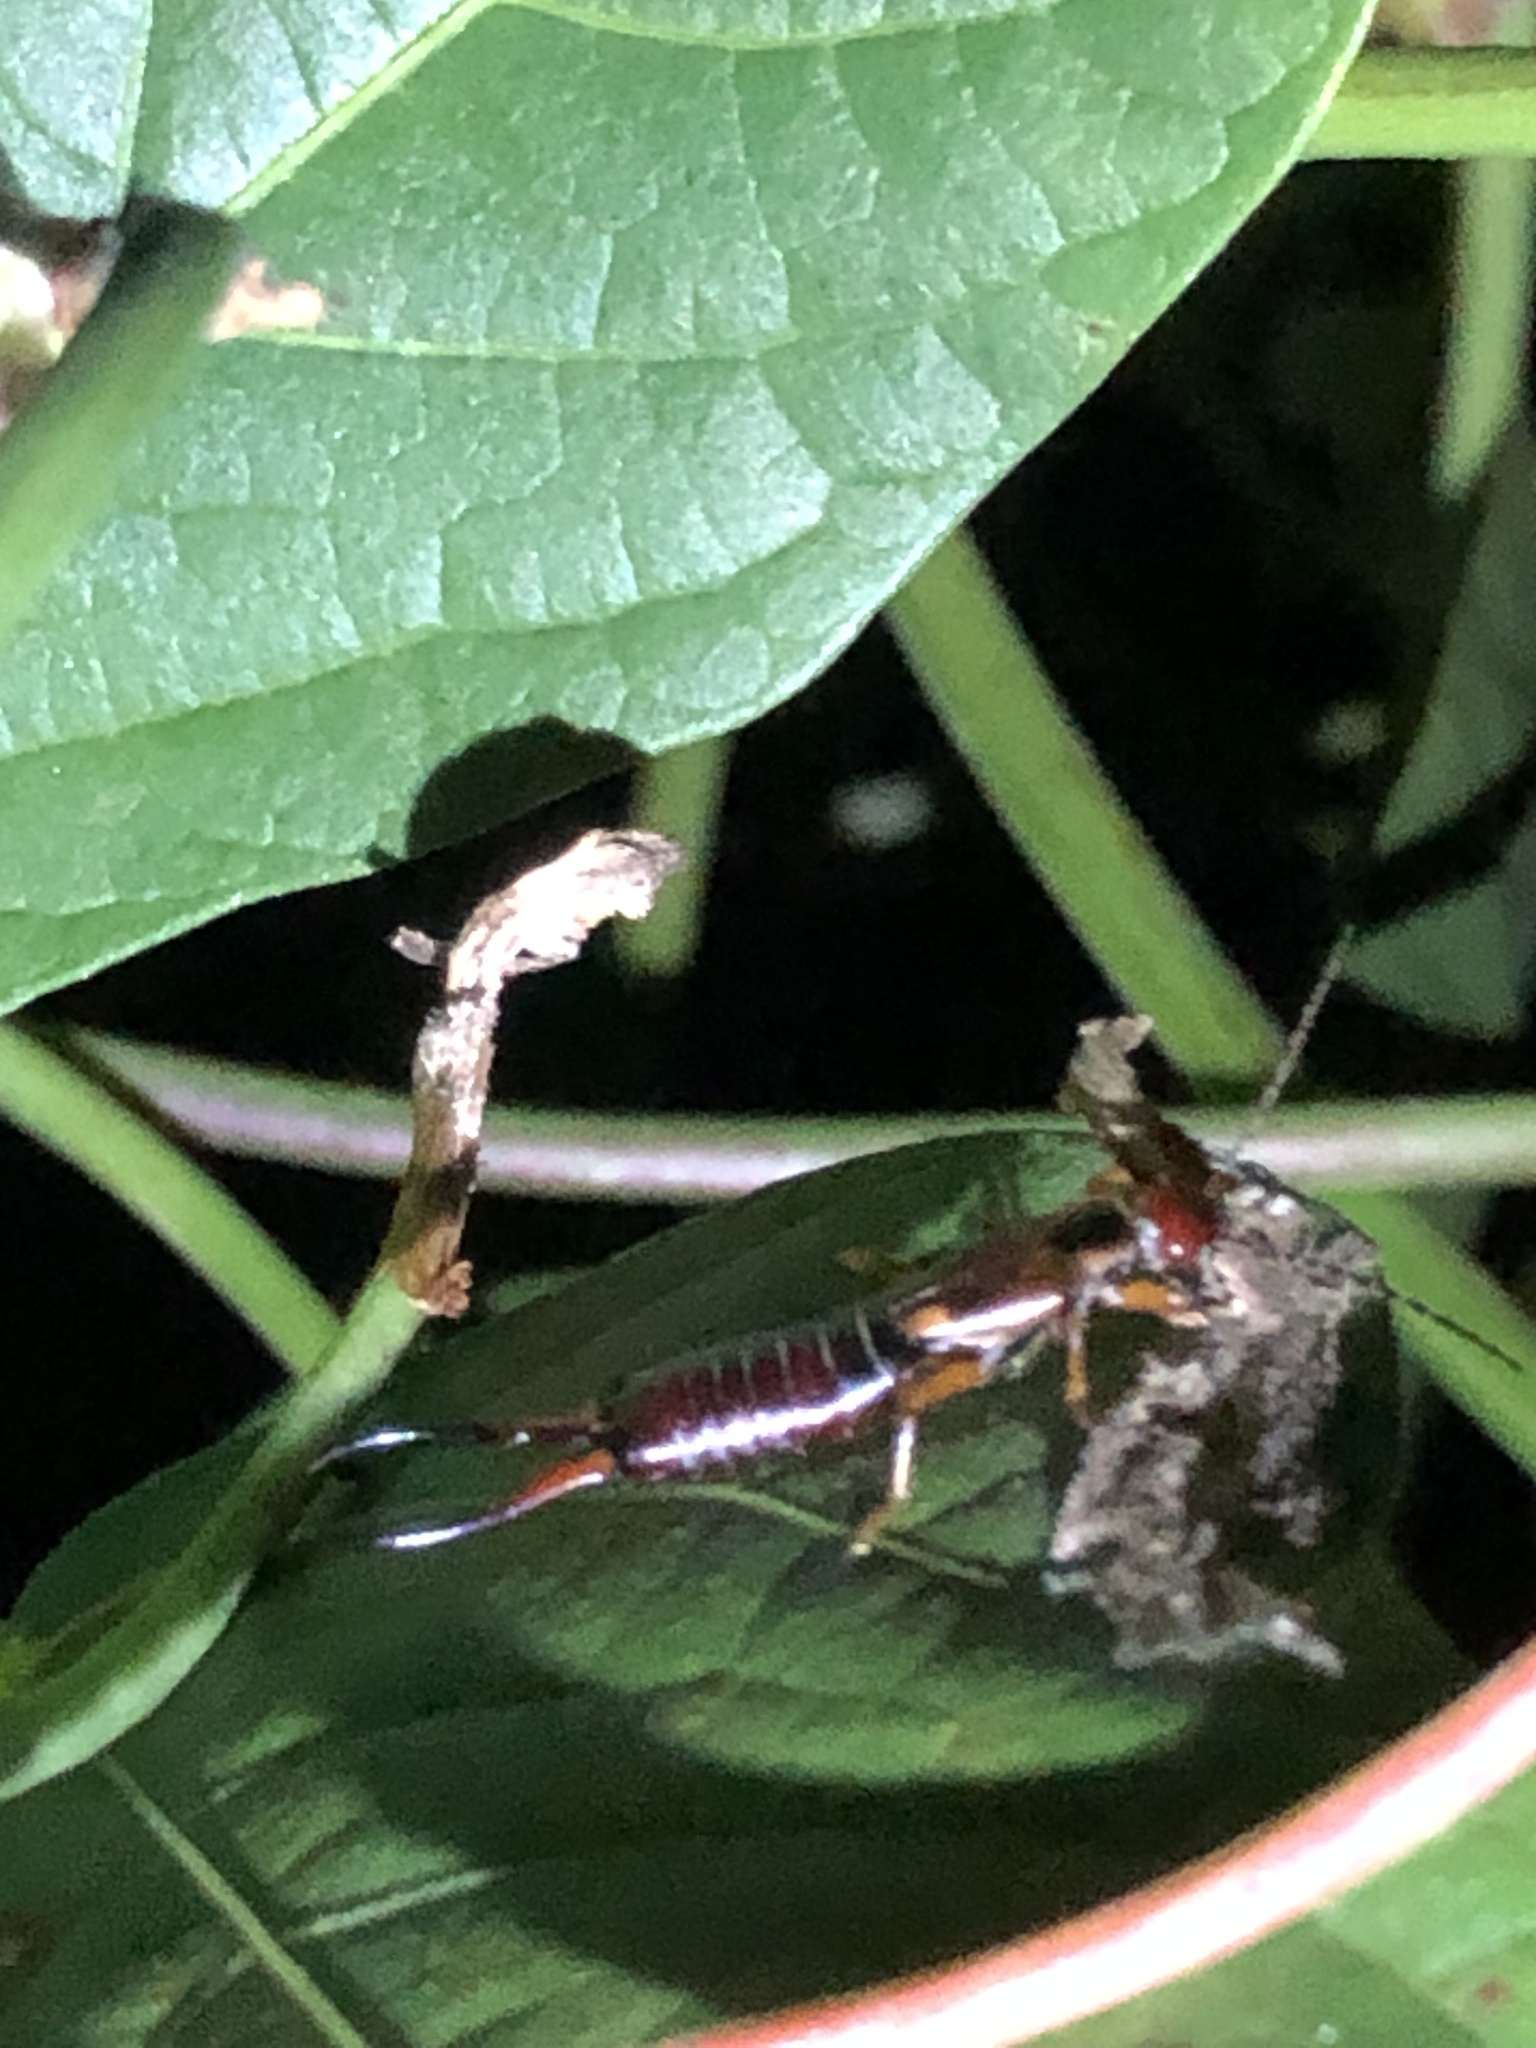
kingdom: Animalia
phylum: Arthropoda
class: Insecta
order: Dermaptera
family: Forficulidae
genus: Forficula
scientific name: Forficula
